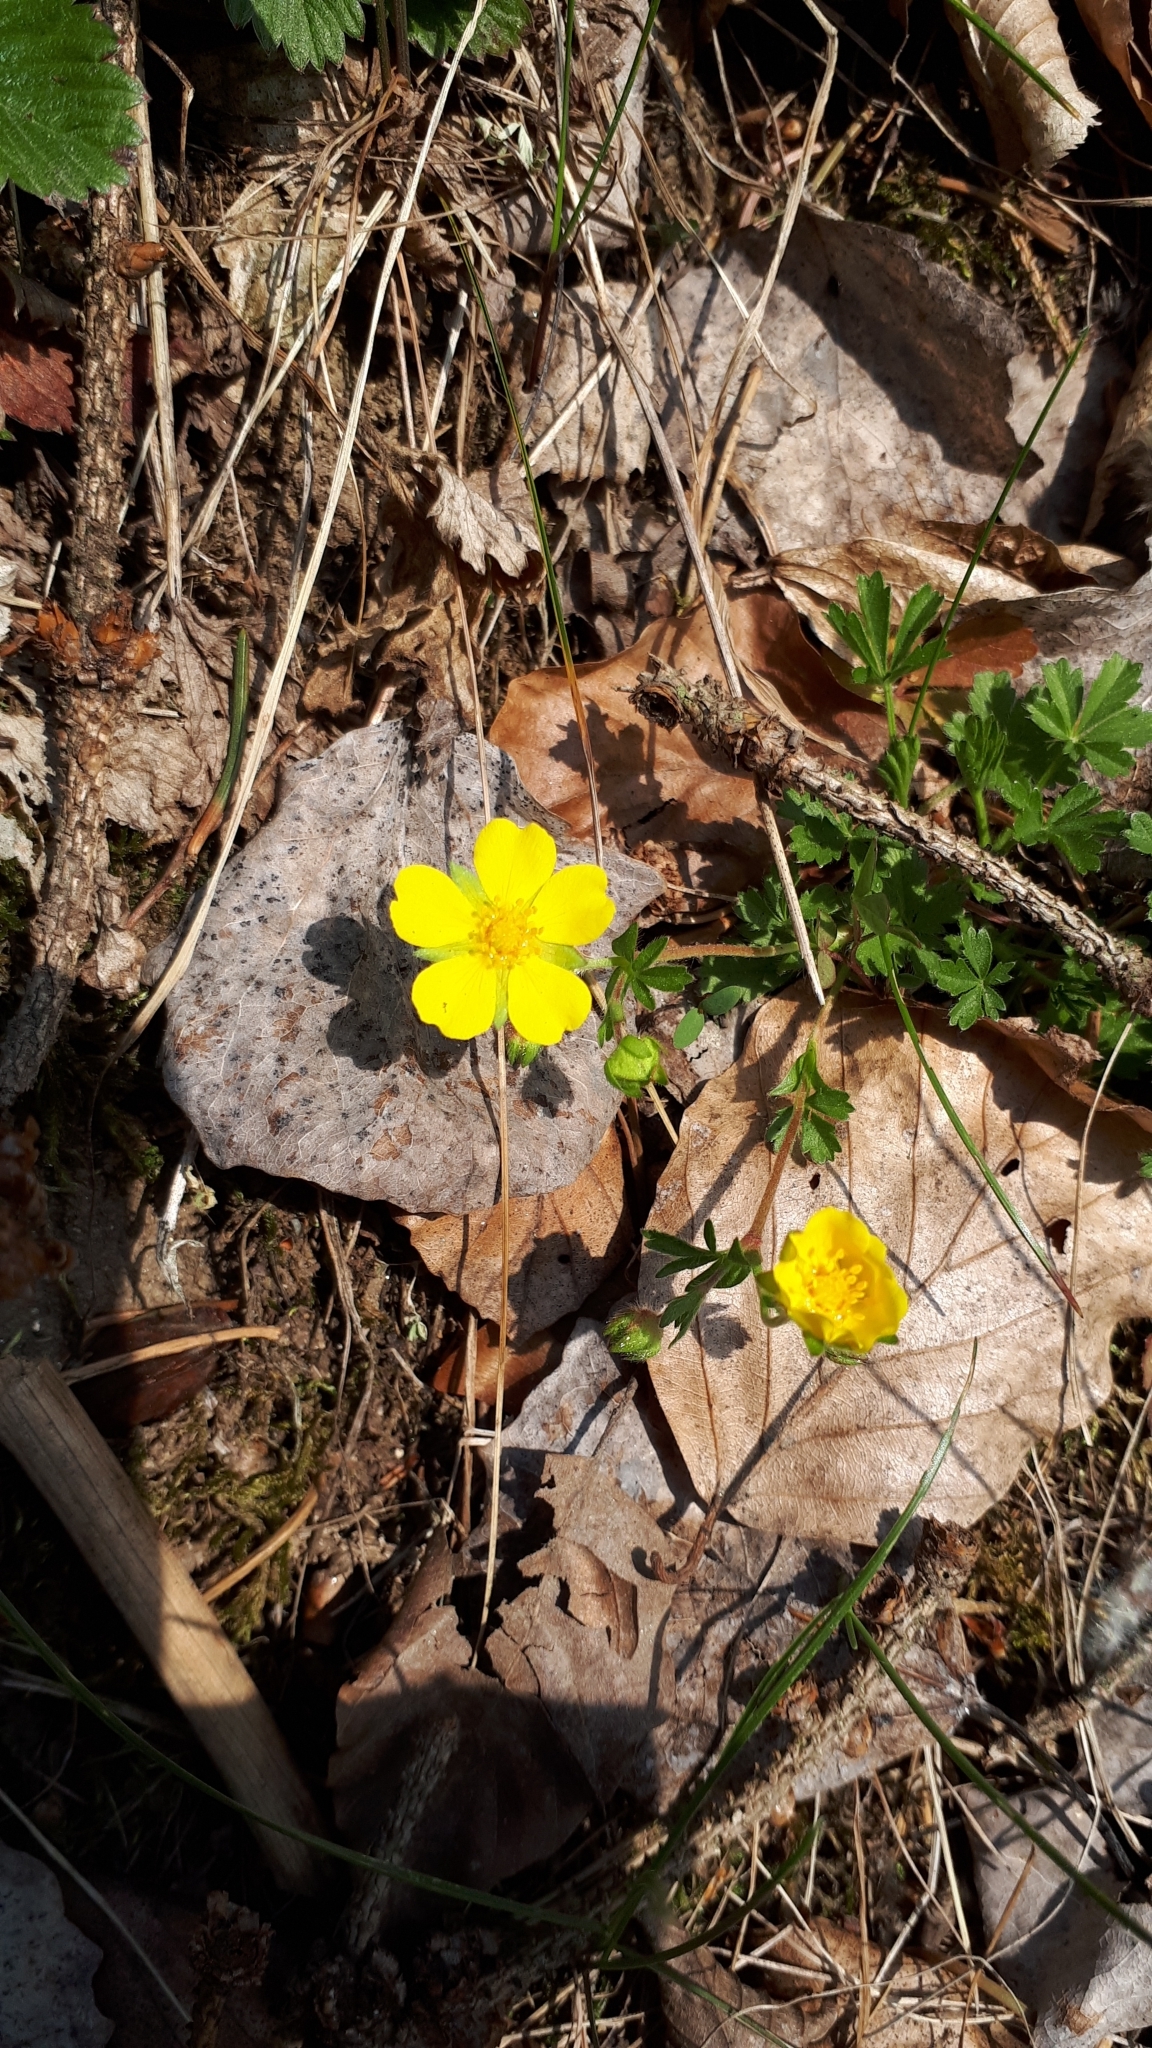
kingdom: Plantae
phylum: Tracheophyta
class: Magnoliopsida
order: Rosales
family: Rosaceae
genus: Potentilla
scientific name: Potentilla verna
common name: Spring cinquefoil
